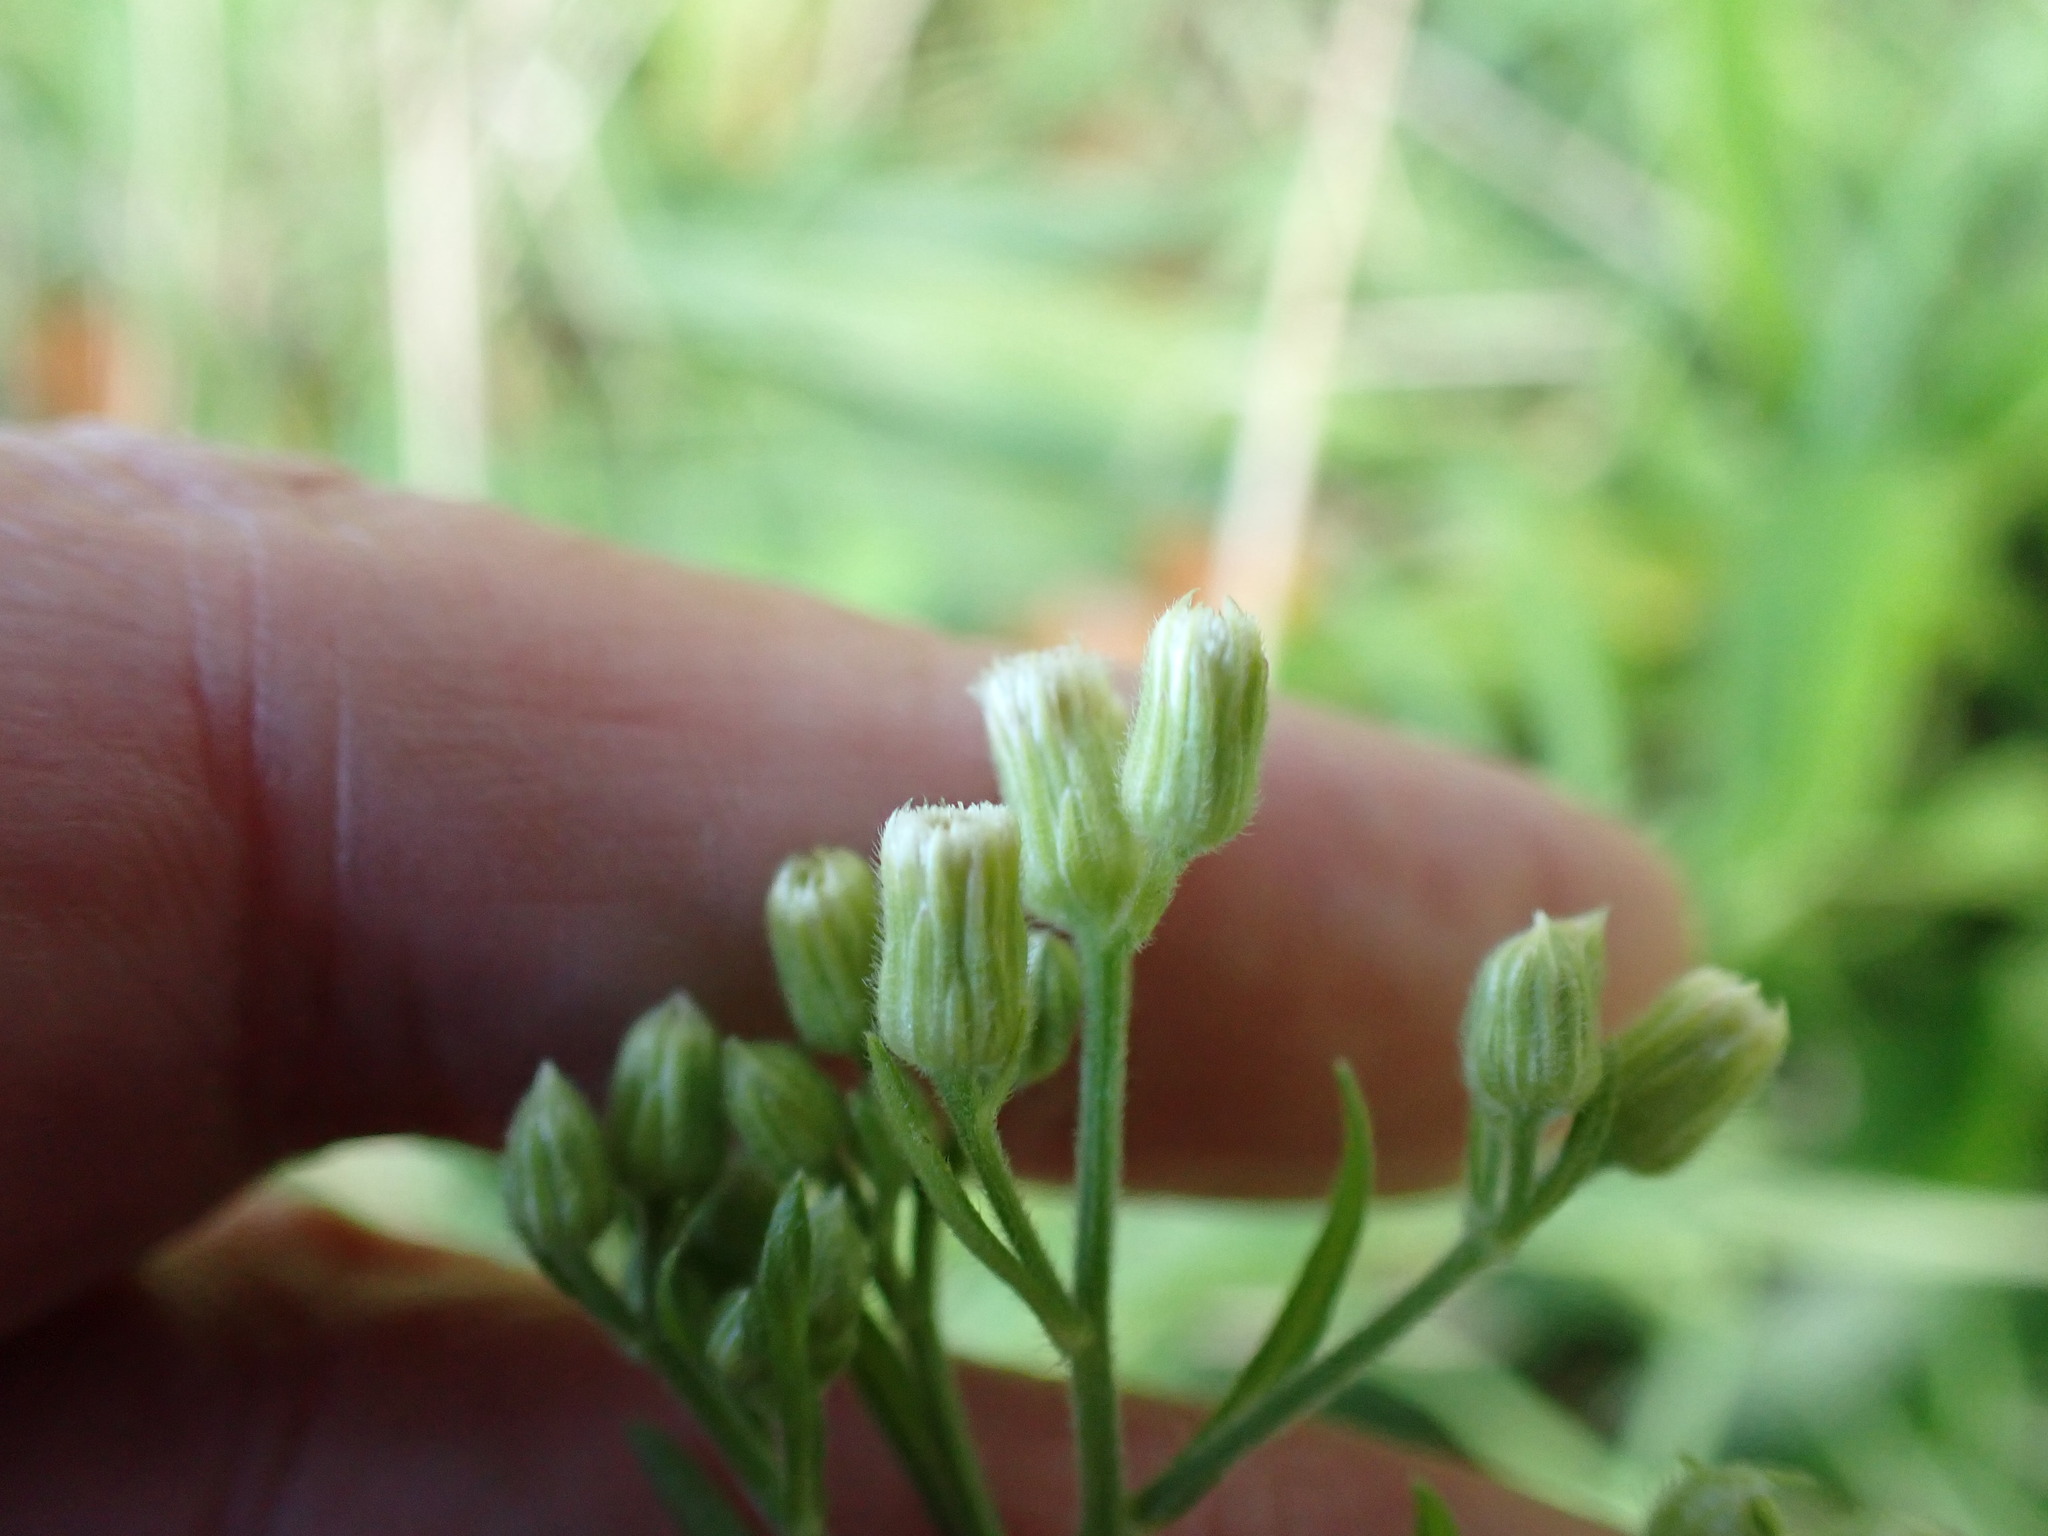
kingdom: Plantae
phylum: Tracheophyta
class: Magnoliopsida
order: Asterales
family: Asteraceae
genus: Erigeron
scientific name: Erigeron sumatrensis
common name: Daisy
